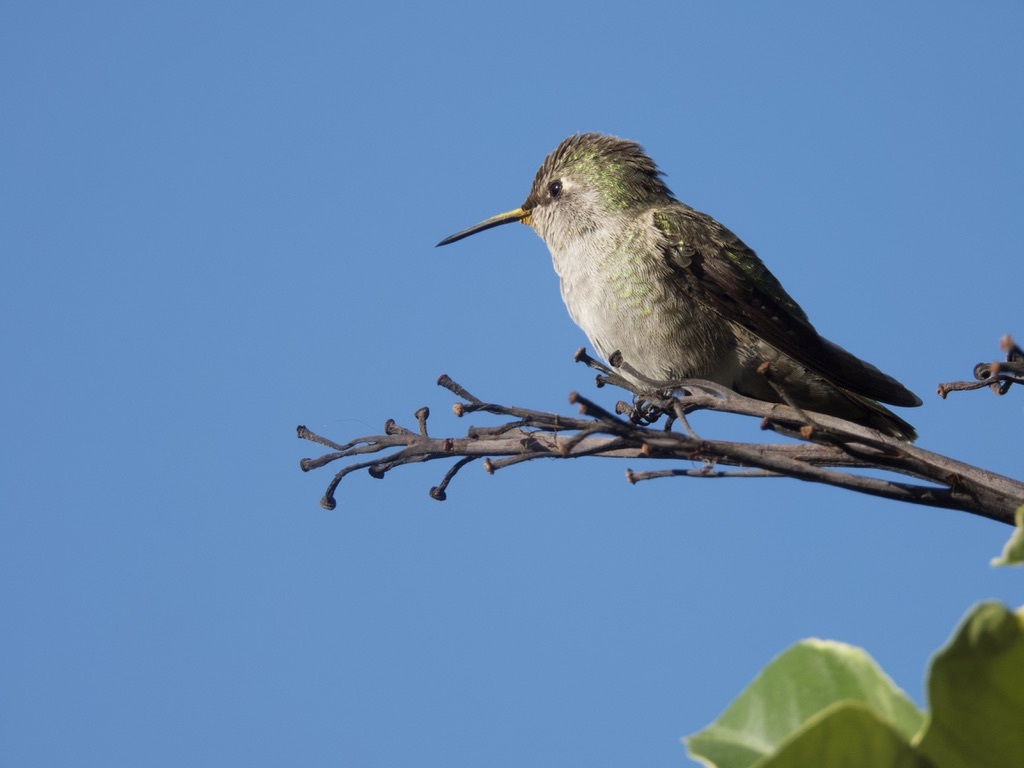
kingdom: Animalia
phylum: Chordata
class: Aves
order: Apodiformes
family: Trochilidae
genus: Calypte
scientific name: Calypte anna
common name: Anna's hummingbird
